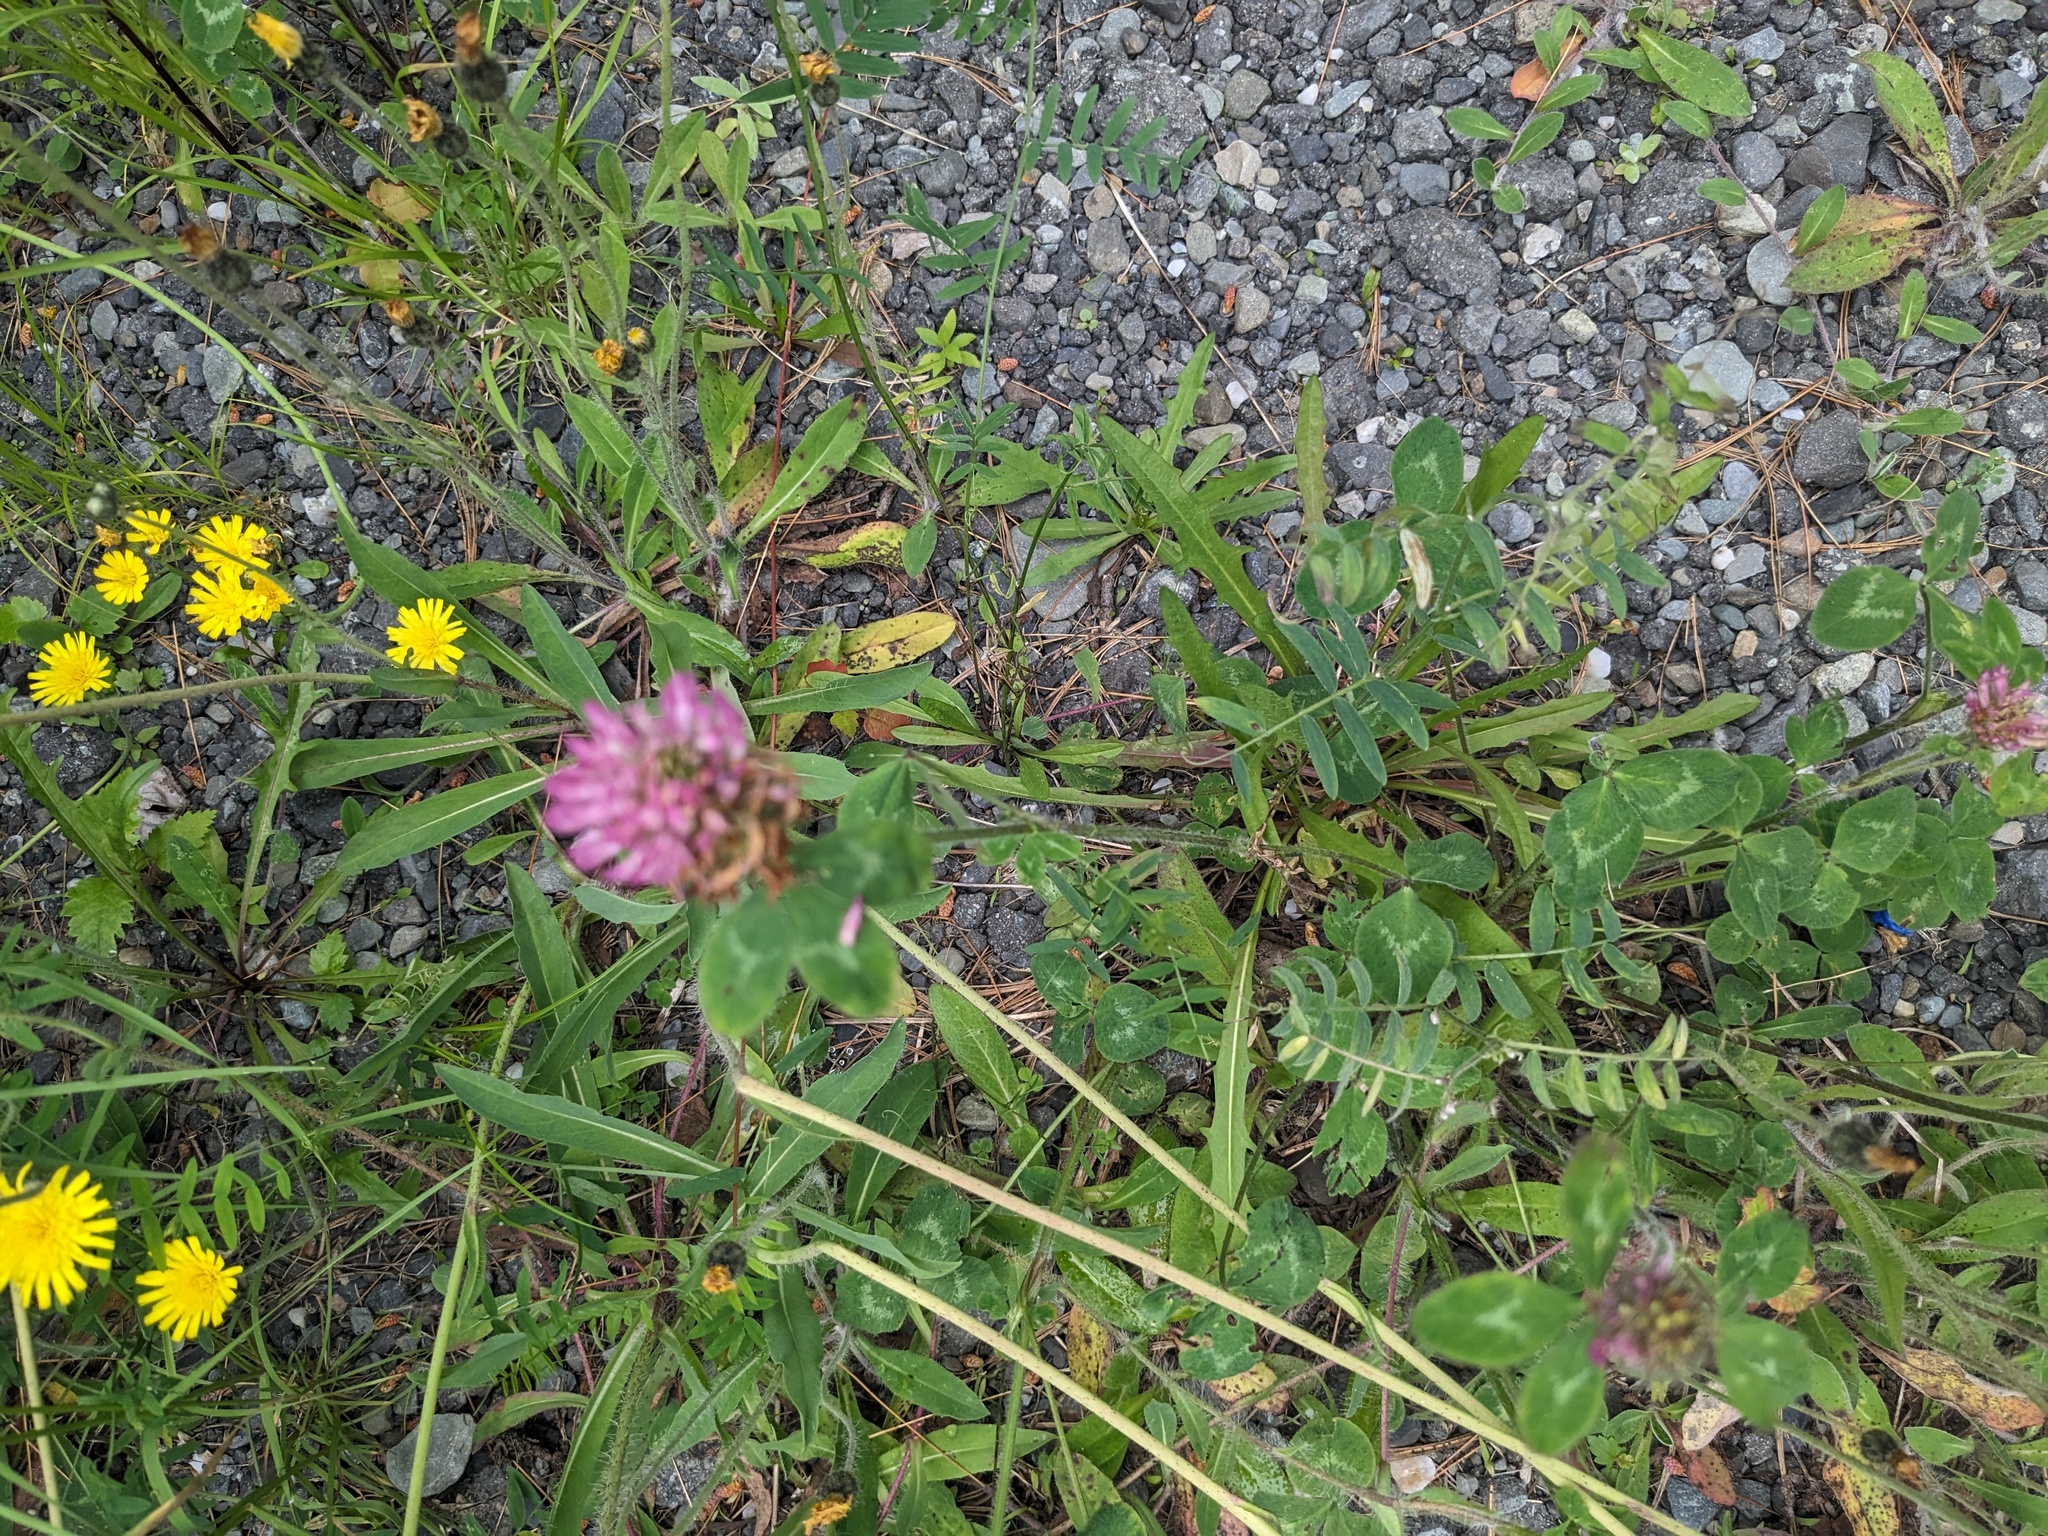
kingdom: Plantae
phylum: Tracheophyta
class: Magnoliopsida
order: Fabales
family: Fabaceae
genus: Trifolium
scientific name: Trifolium pratense
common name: Red clover
